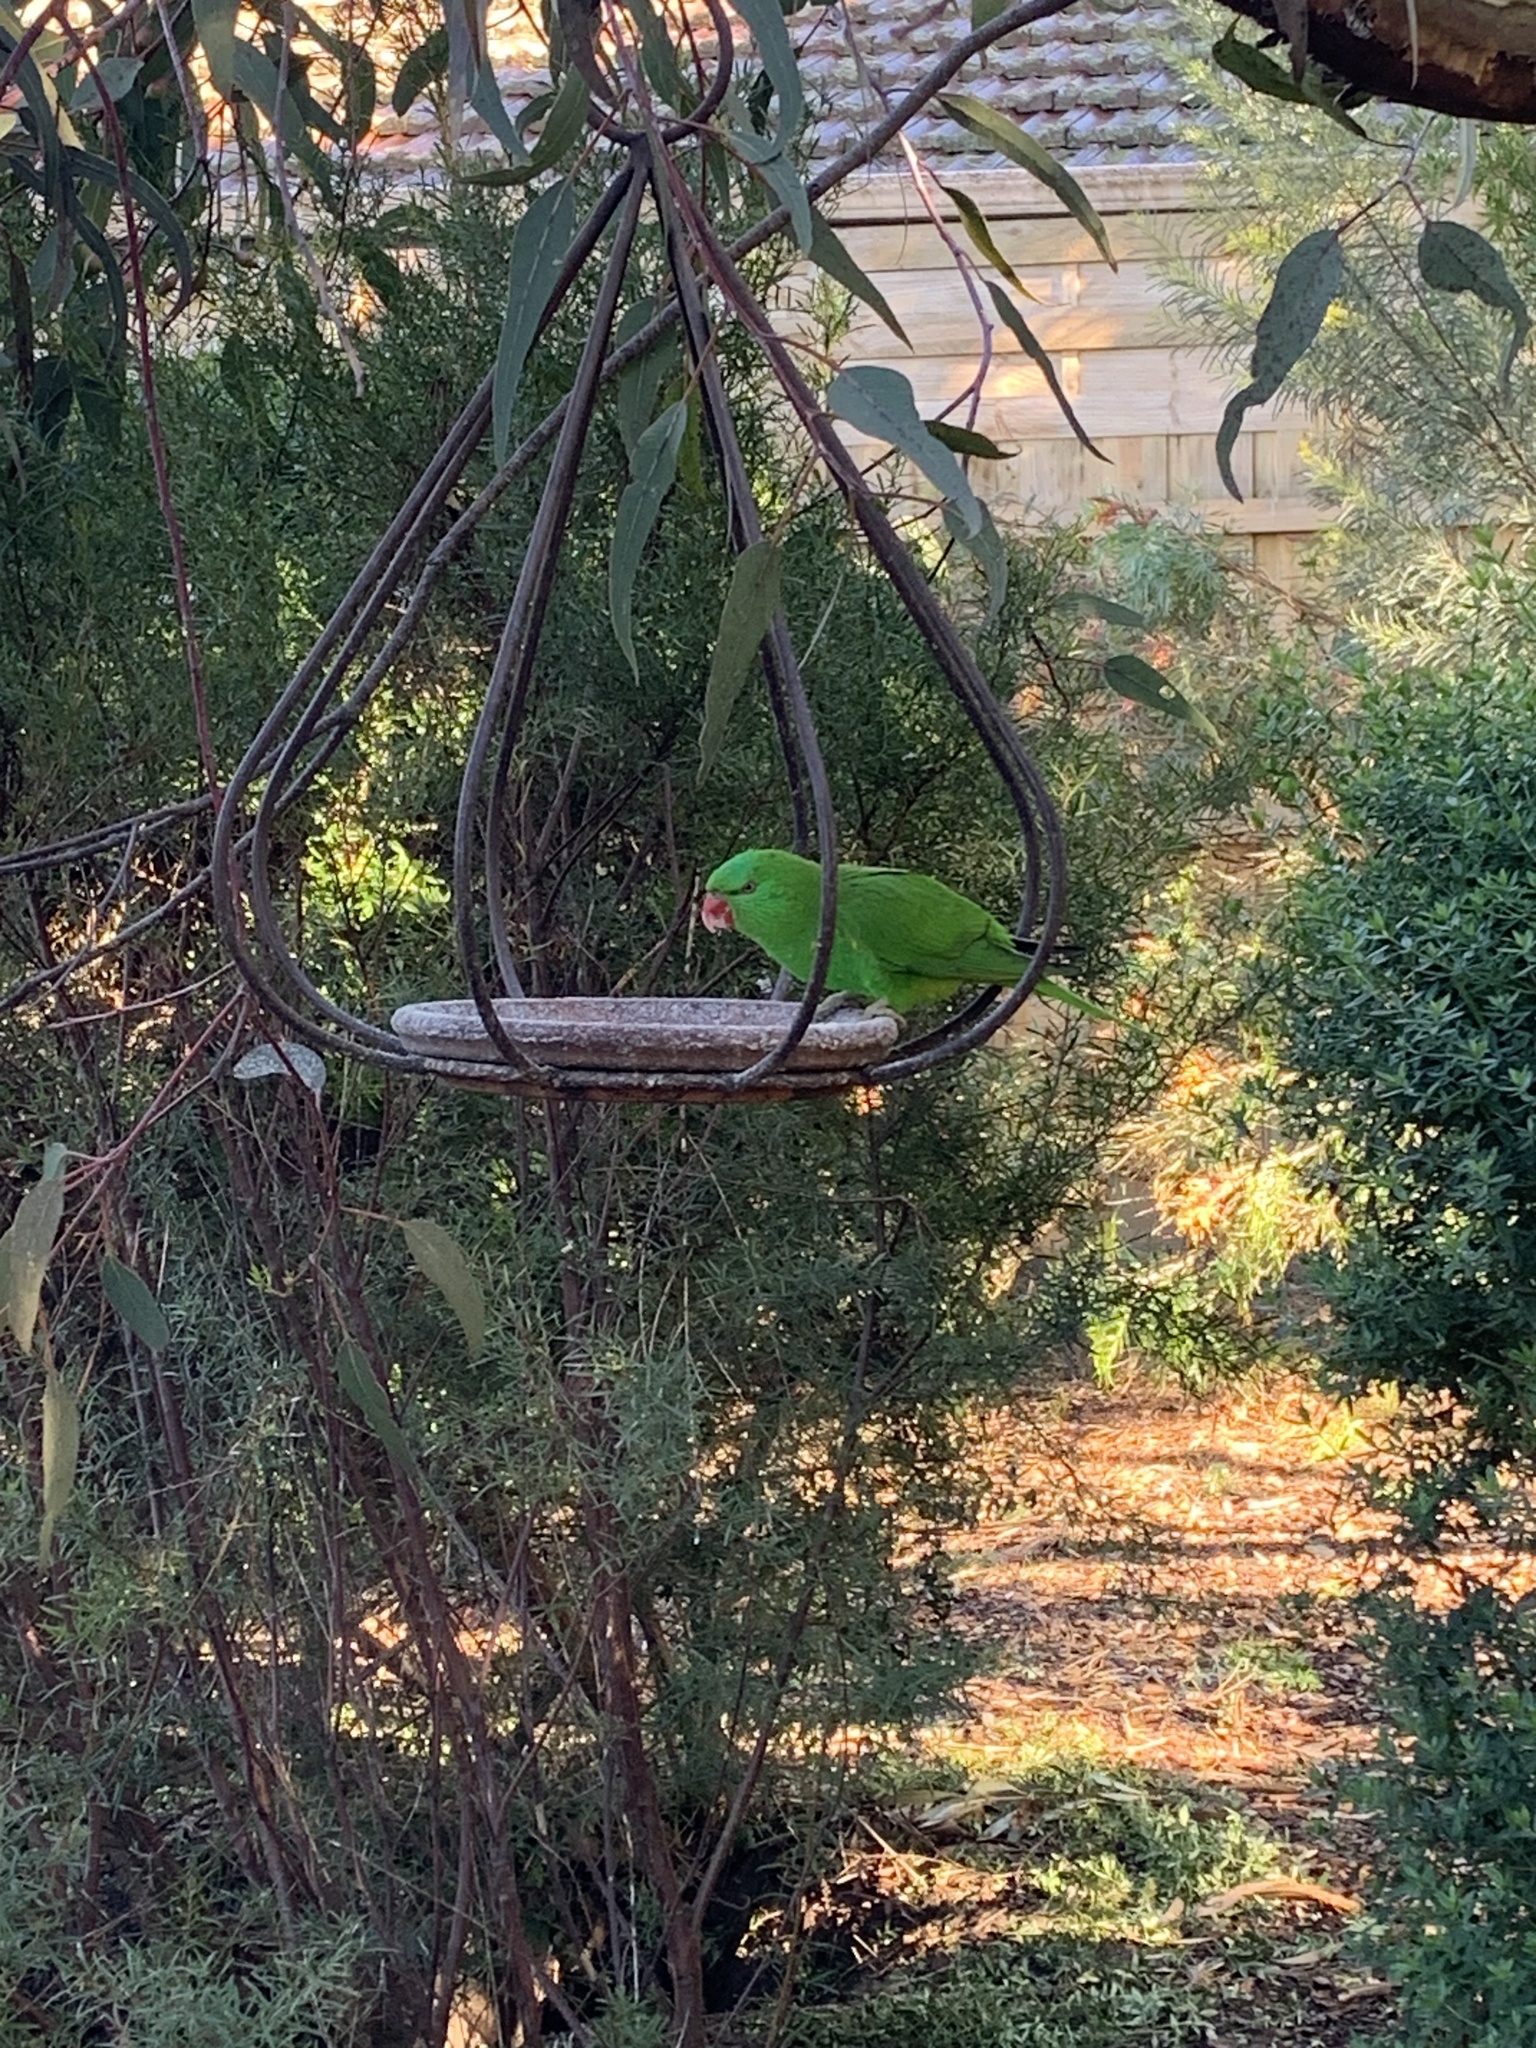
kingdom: Animalia
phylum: Chordata
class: Aves
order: Psittaciformes
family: Psittacidae
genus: Trichoglossus
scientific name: Trichoglossus chlorolepidotus
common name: Scaly-breasted lorikeet
